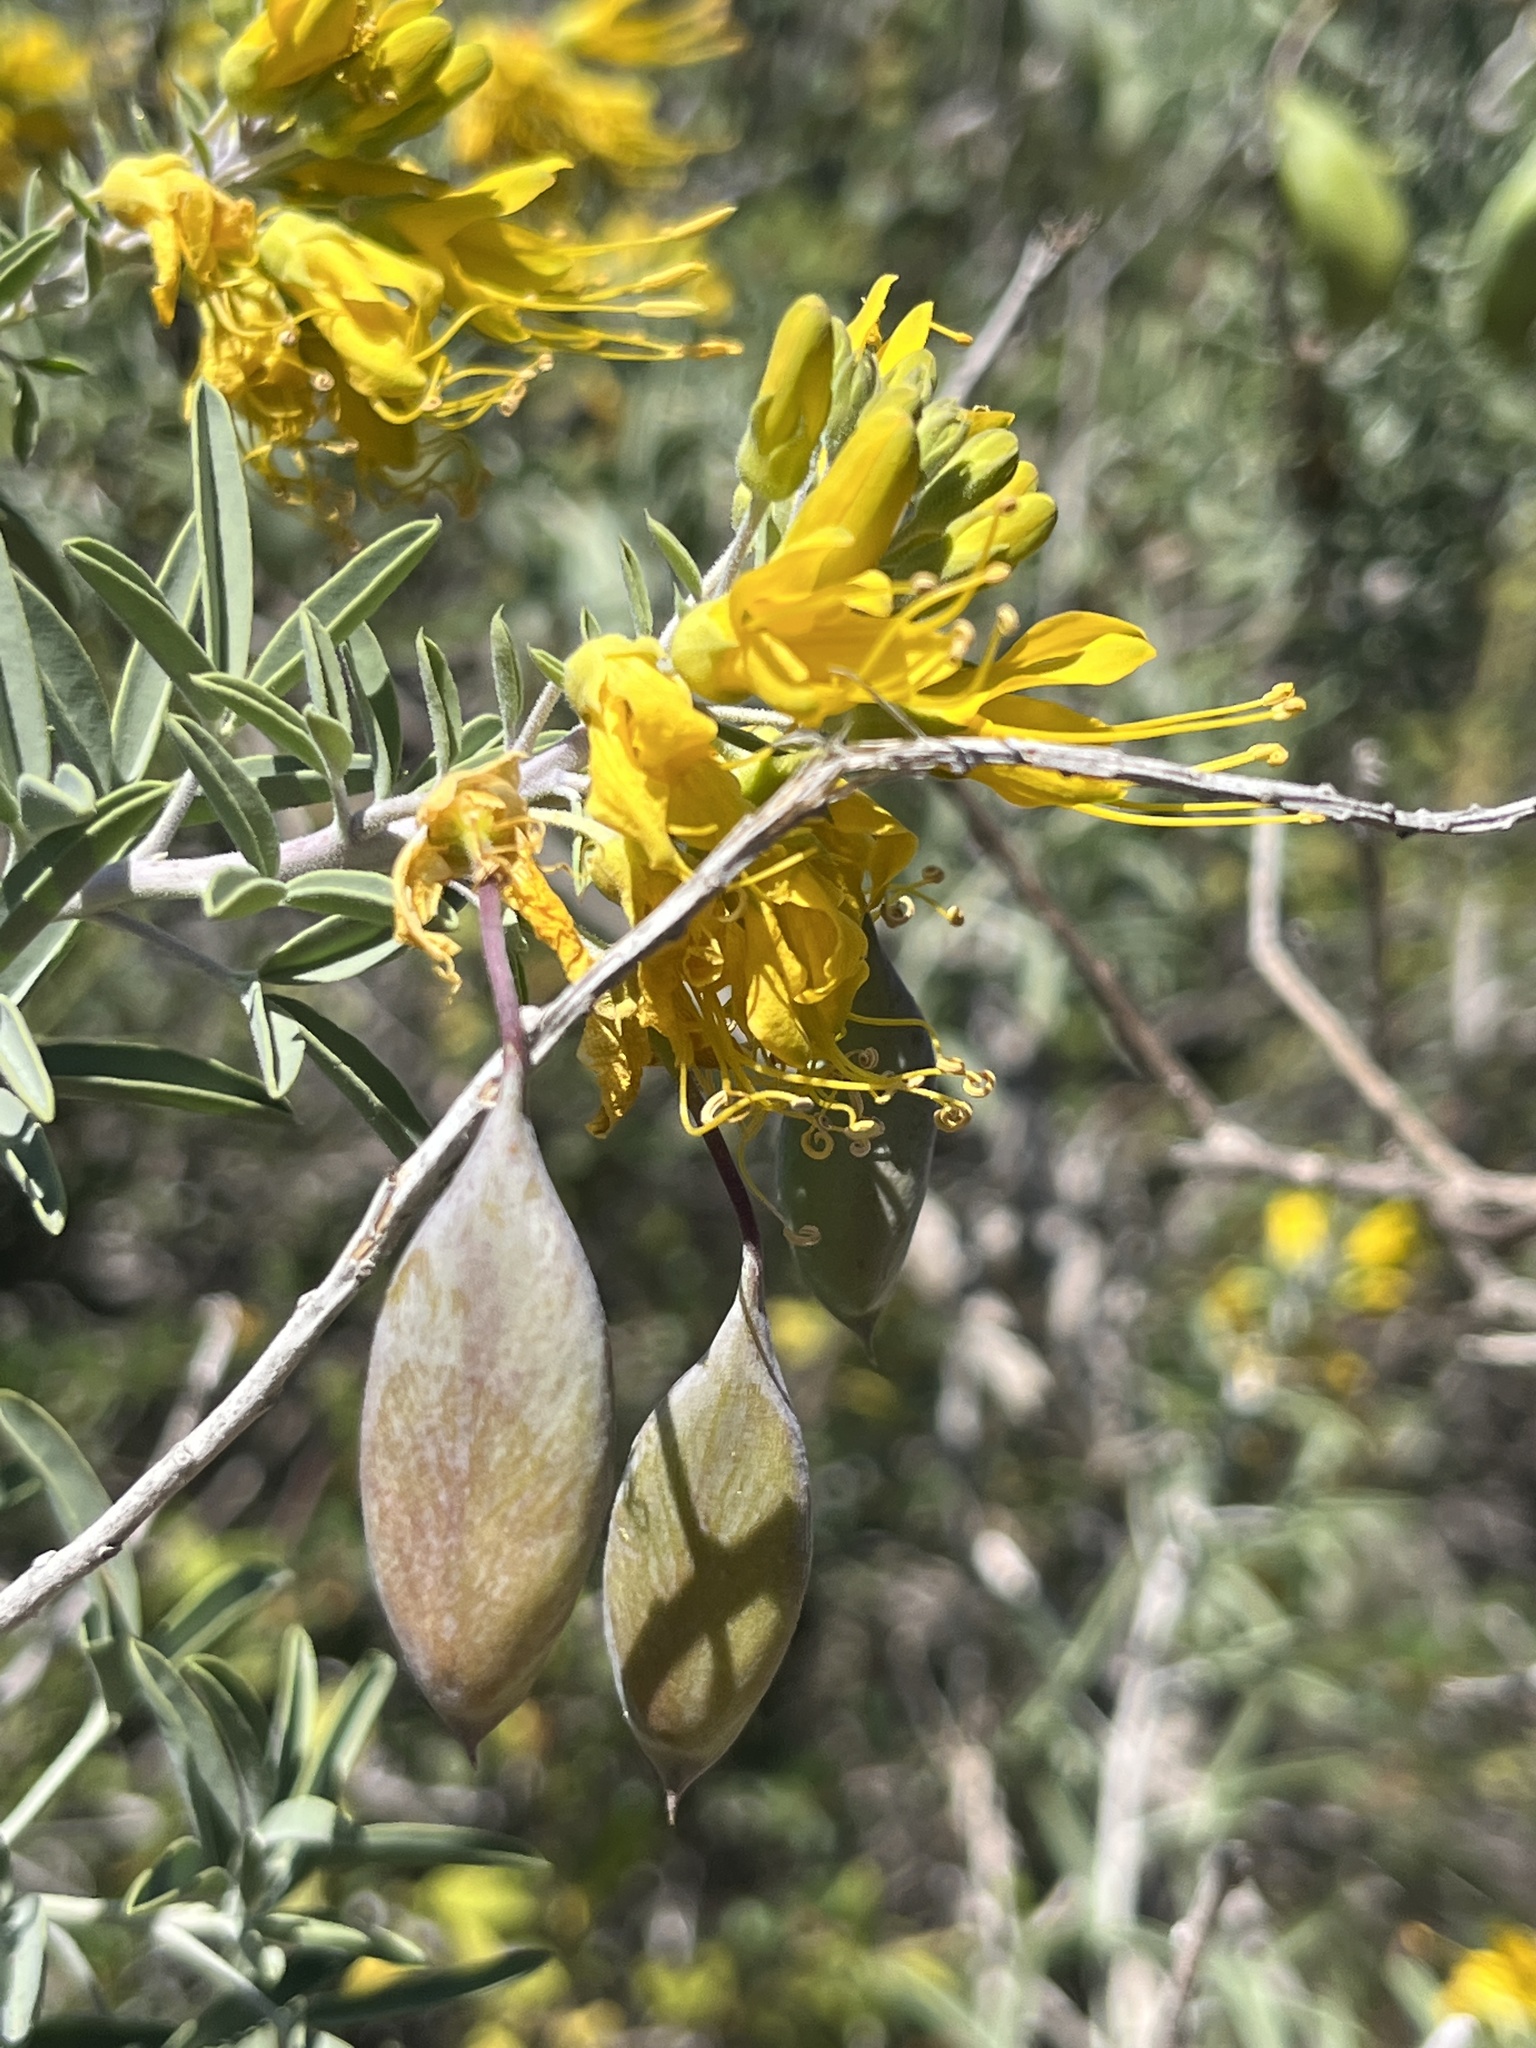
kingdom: Plantae
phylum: Tracheophyta
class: Magnoliopsida
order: Brassicales
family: Cleomaceae
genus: Cleomella
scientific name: Cleomella arborea
